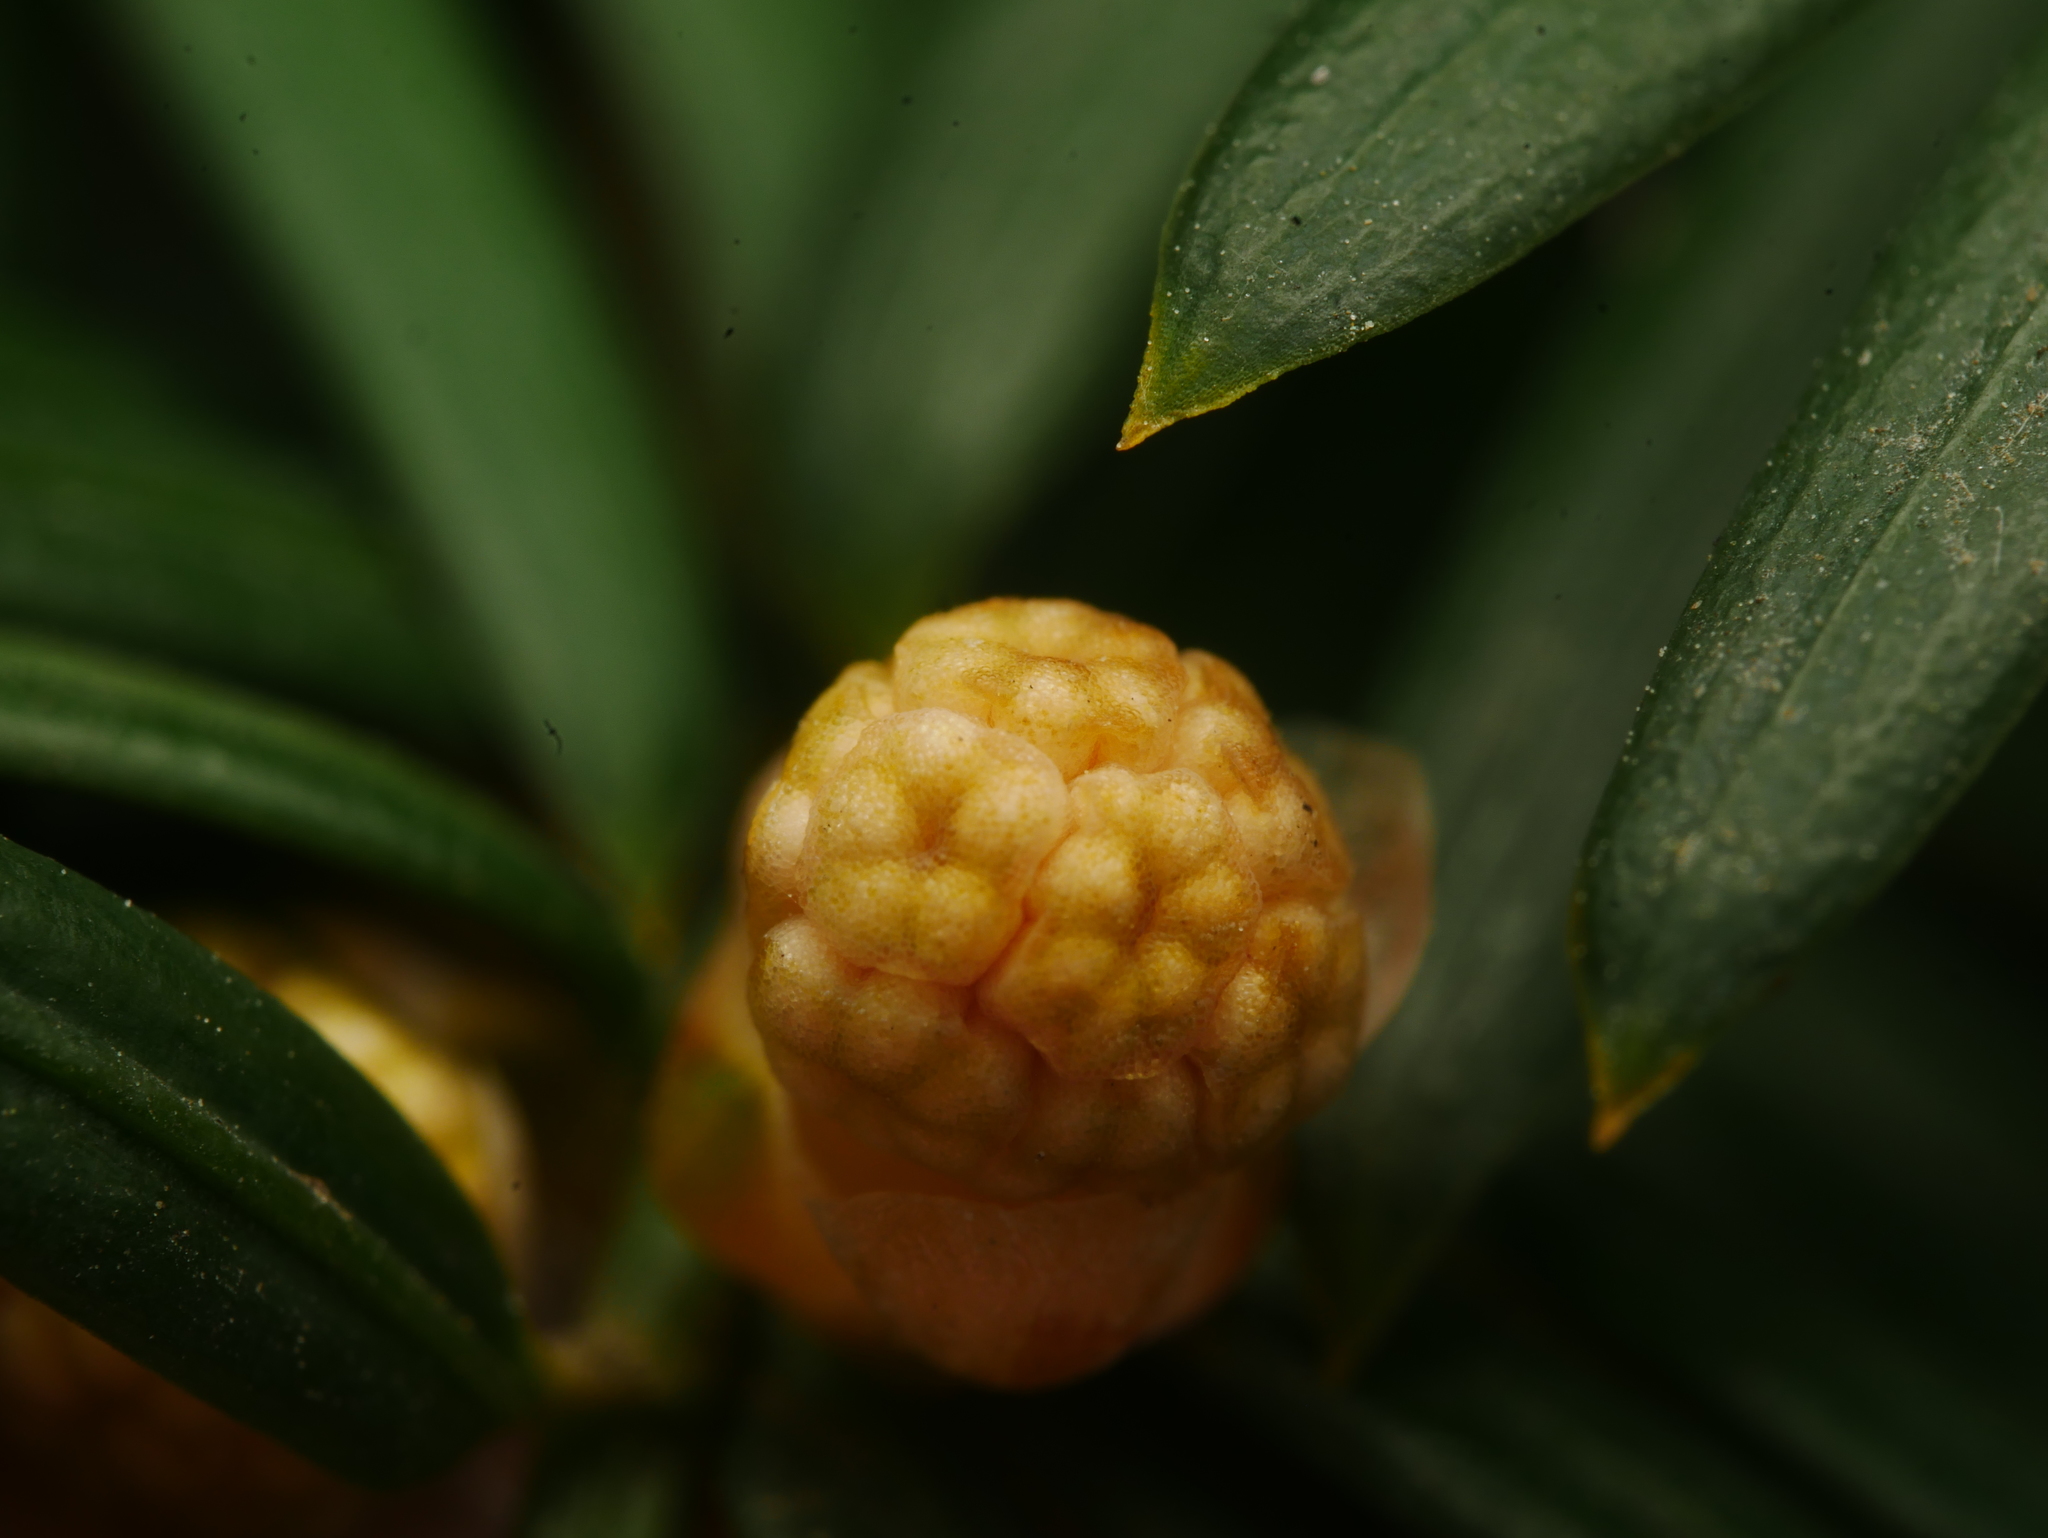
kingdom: Plantae
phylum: Tracheophyta
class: Pinopsida
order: Pinales
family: Taxaceae
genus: Taxus
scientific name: Taxus baccata
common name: Yew
